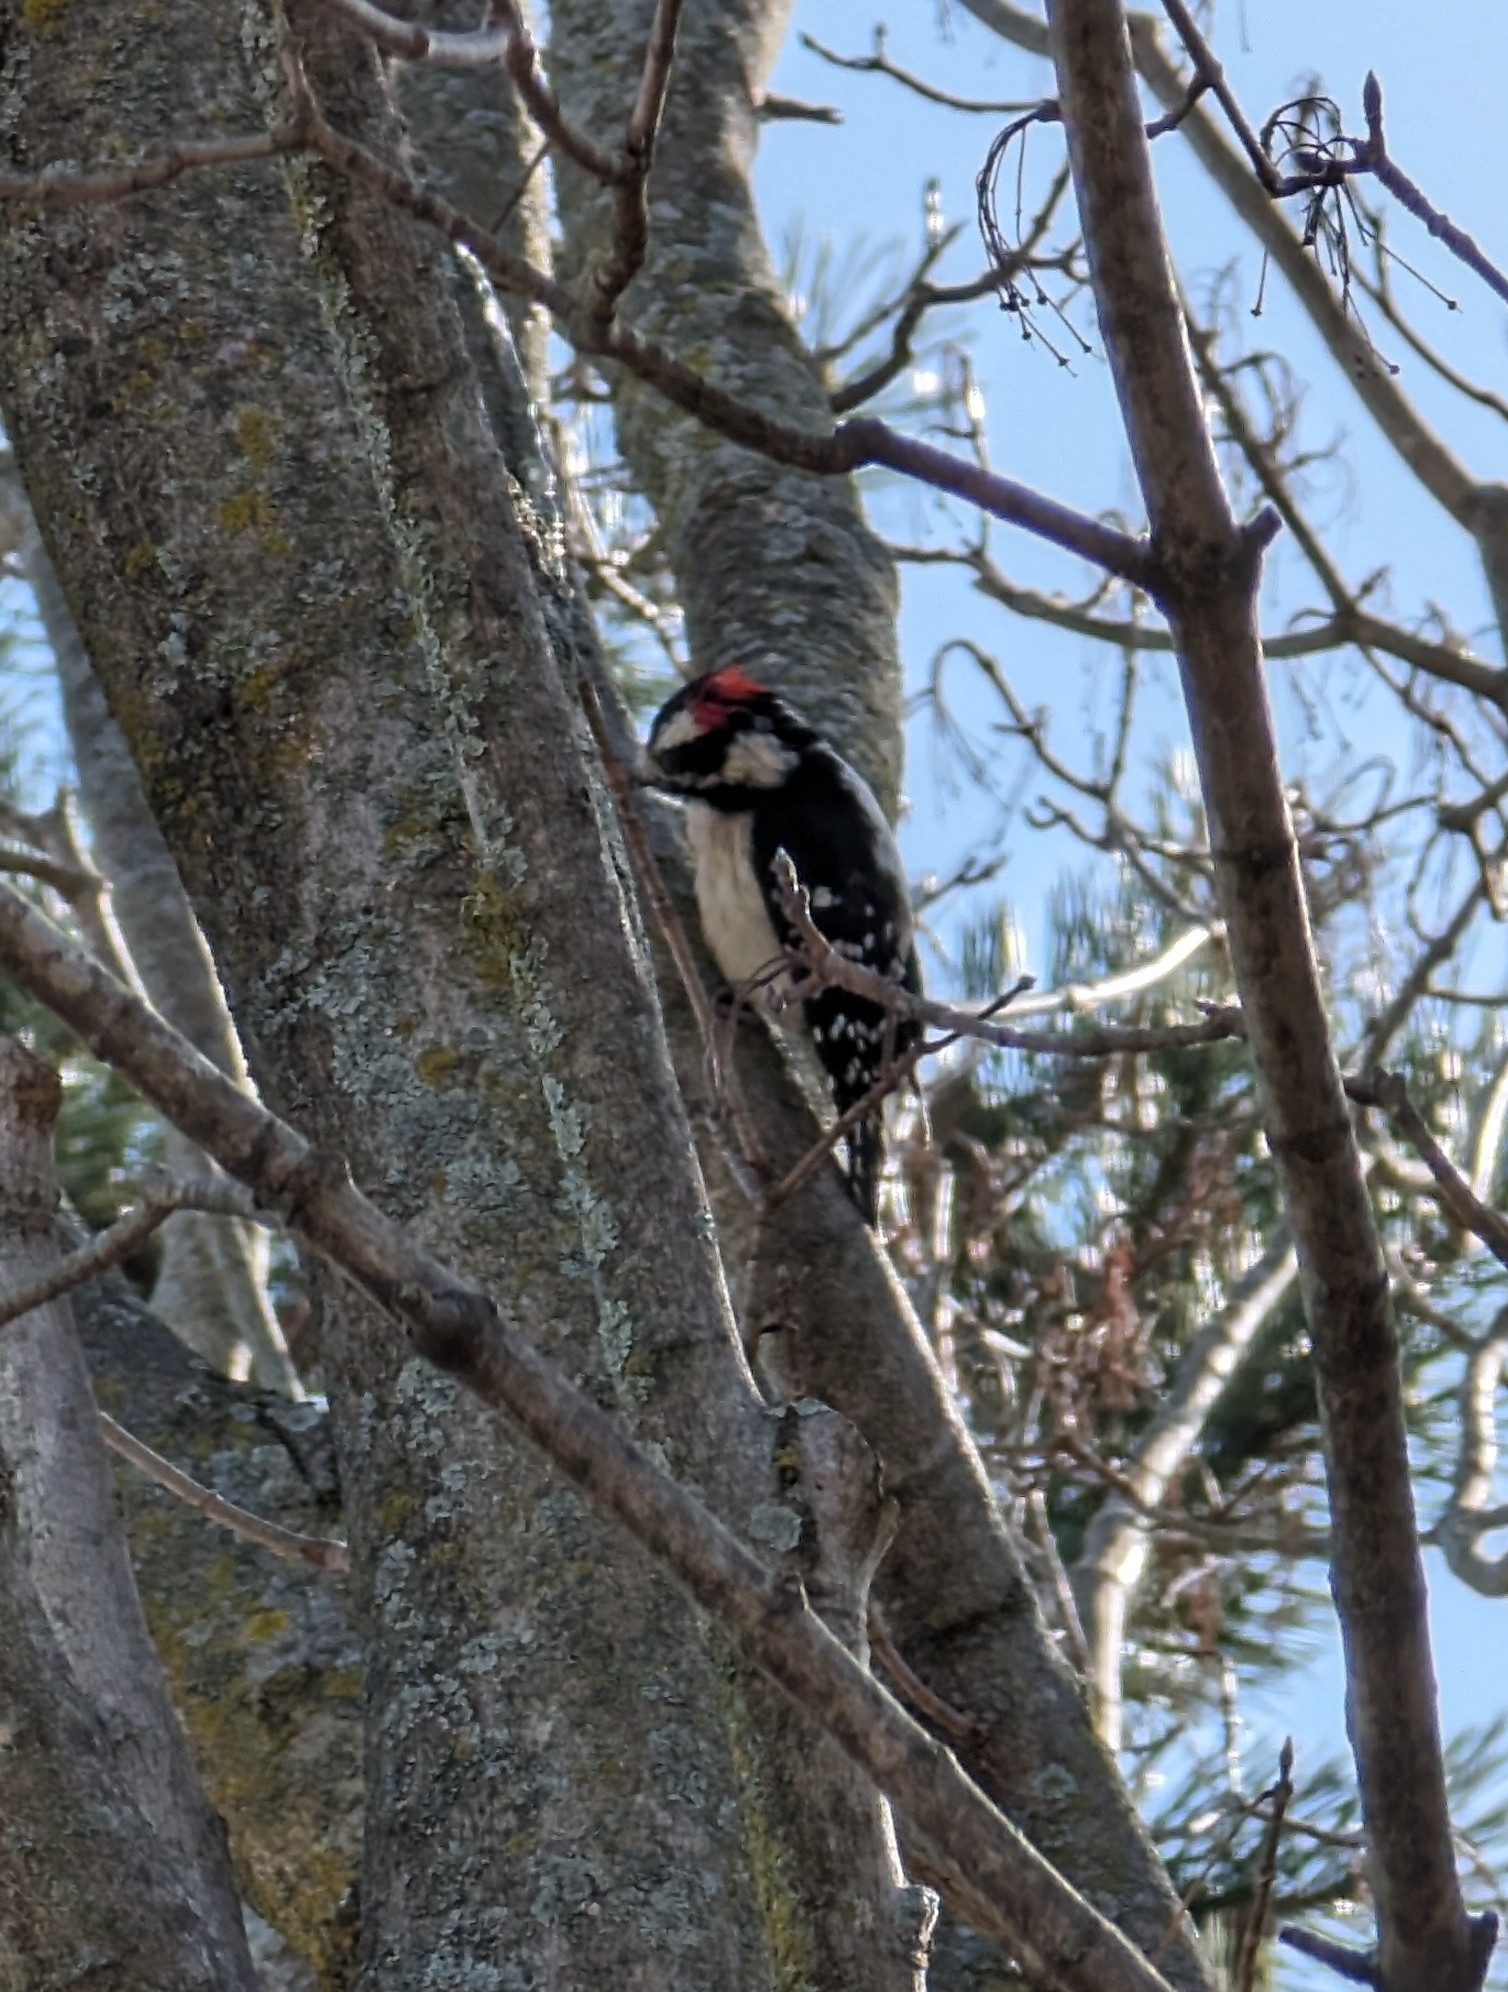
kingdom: Animalia
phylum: Chordata
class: Aves
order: Piciformes
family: Picidae
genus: Dryobates
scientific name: Dryobates pubescens
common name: Downy woodpecker
